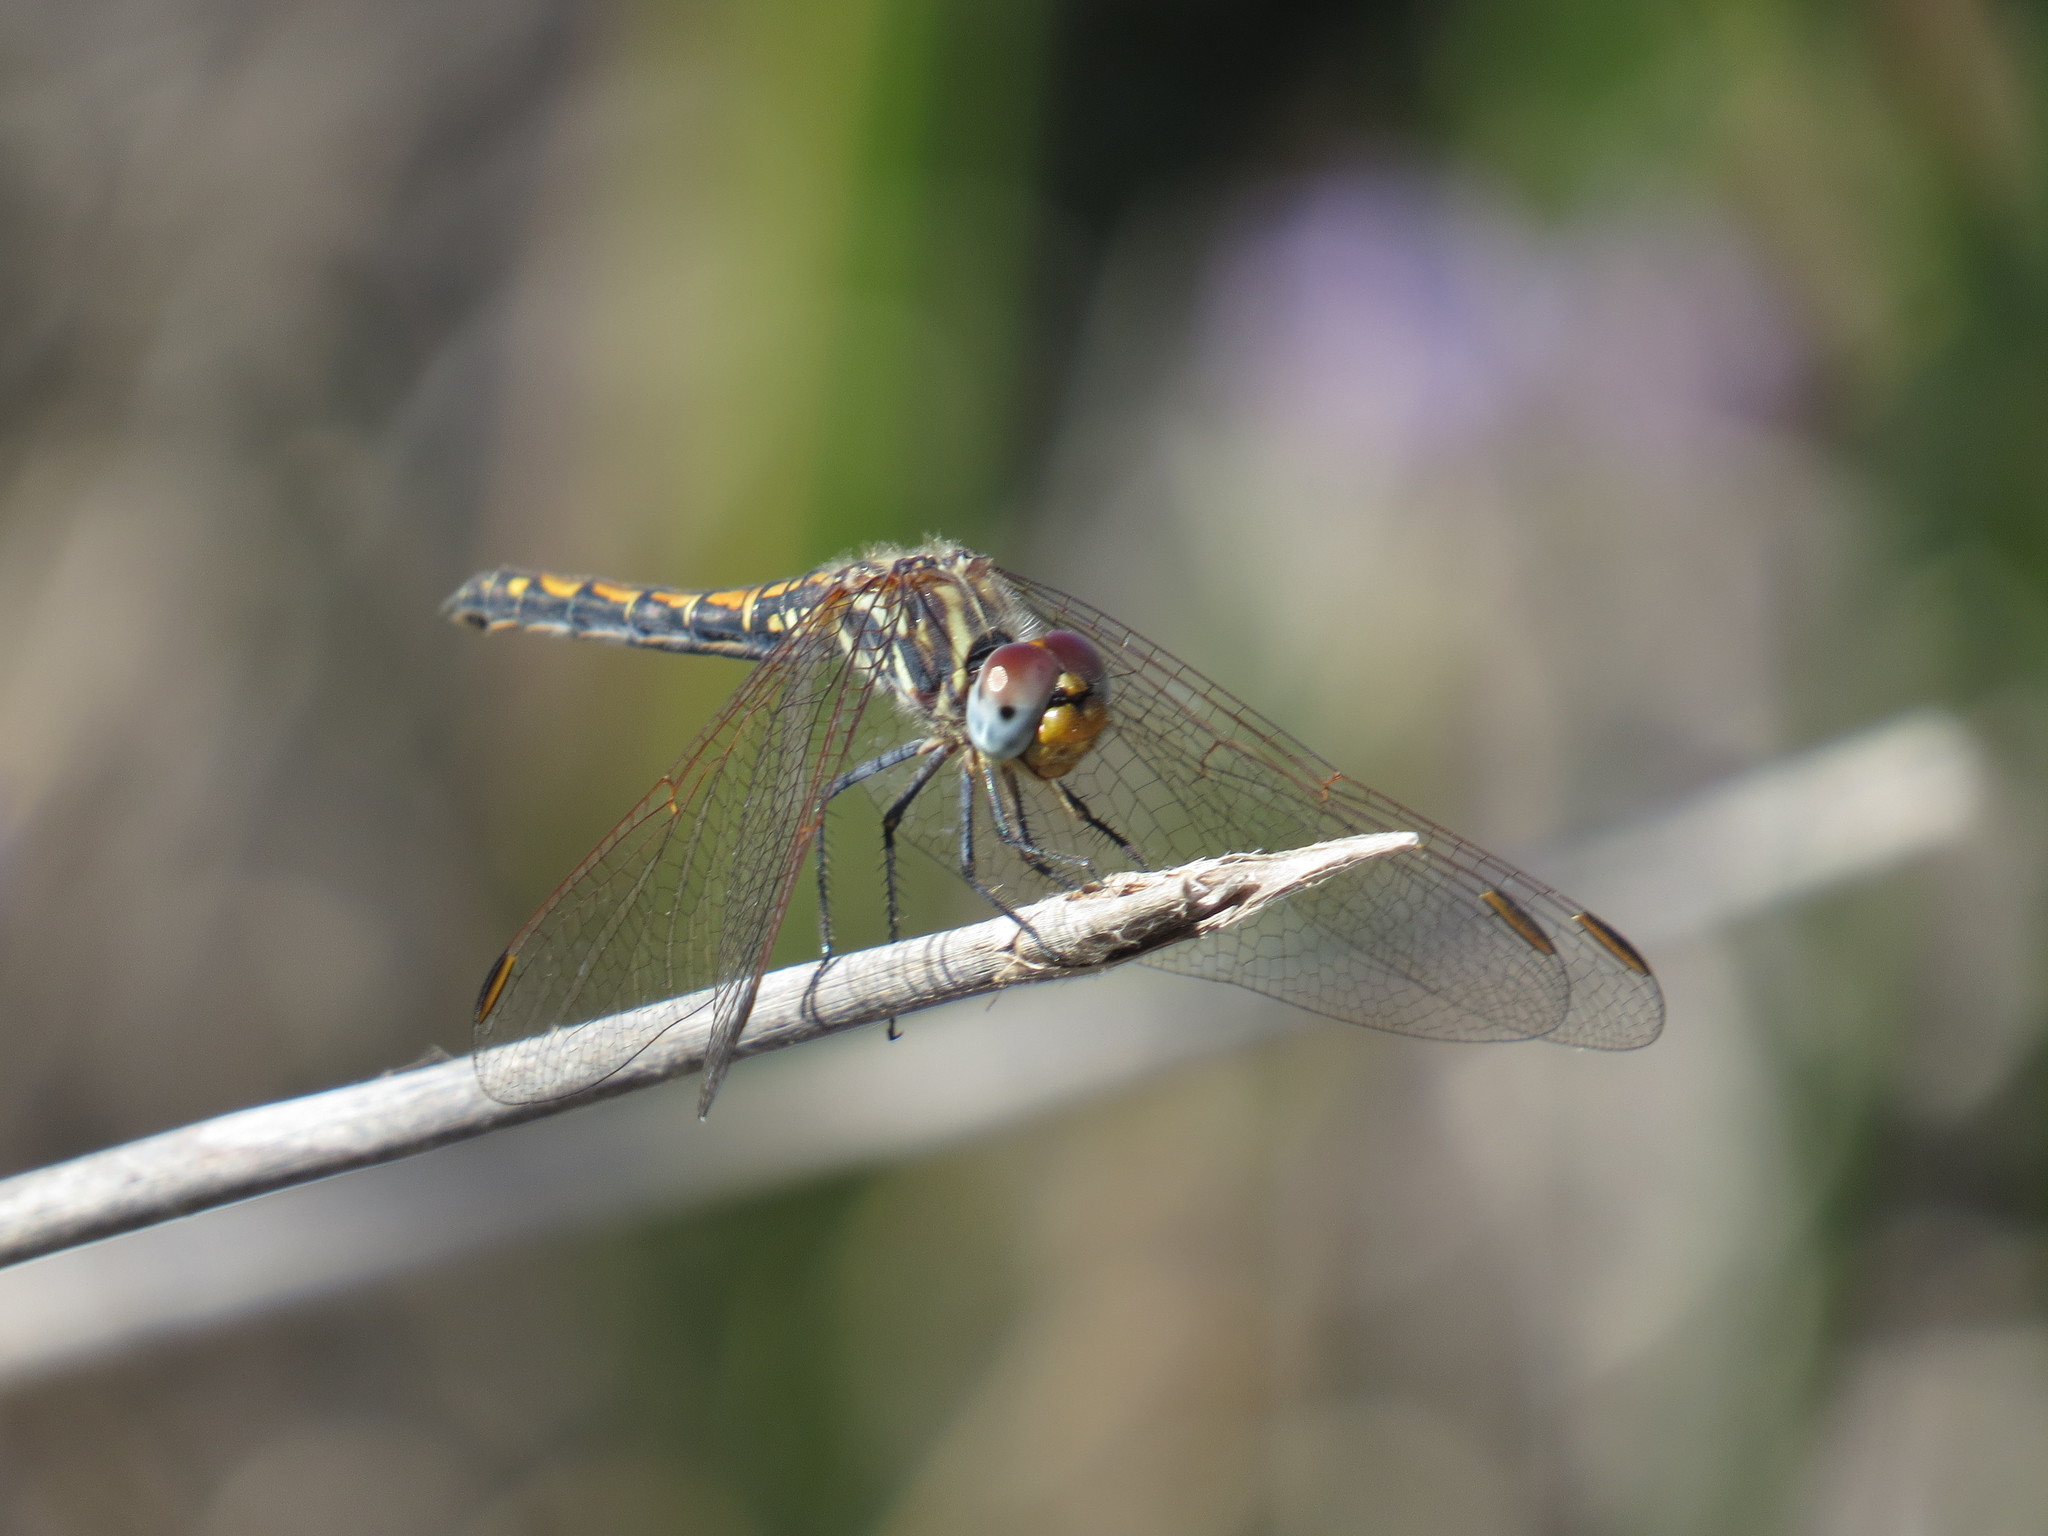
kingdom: Animalia
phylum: Arthropoda
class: Insecta
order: Odonata
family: Libellulidae
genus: Trithemis
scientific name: Trithemis arteriosa
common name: Red-veined dropwing
